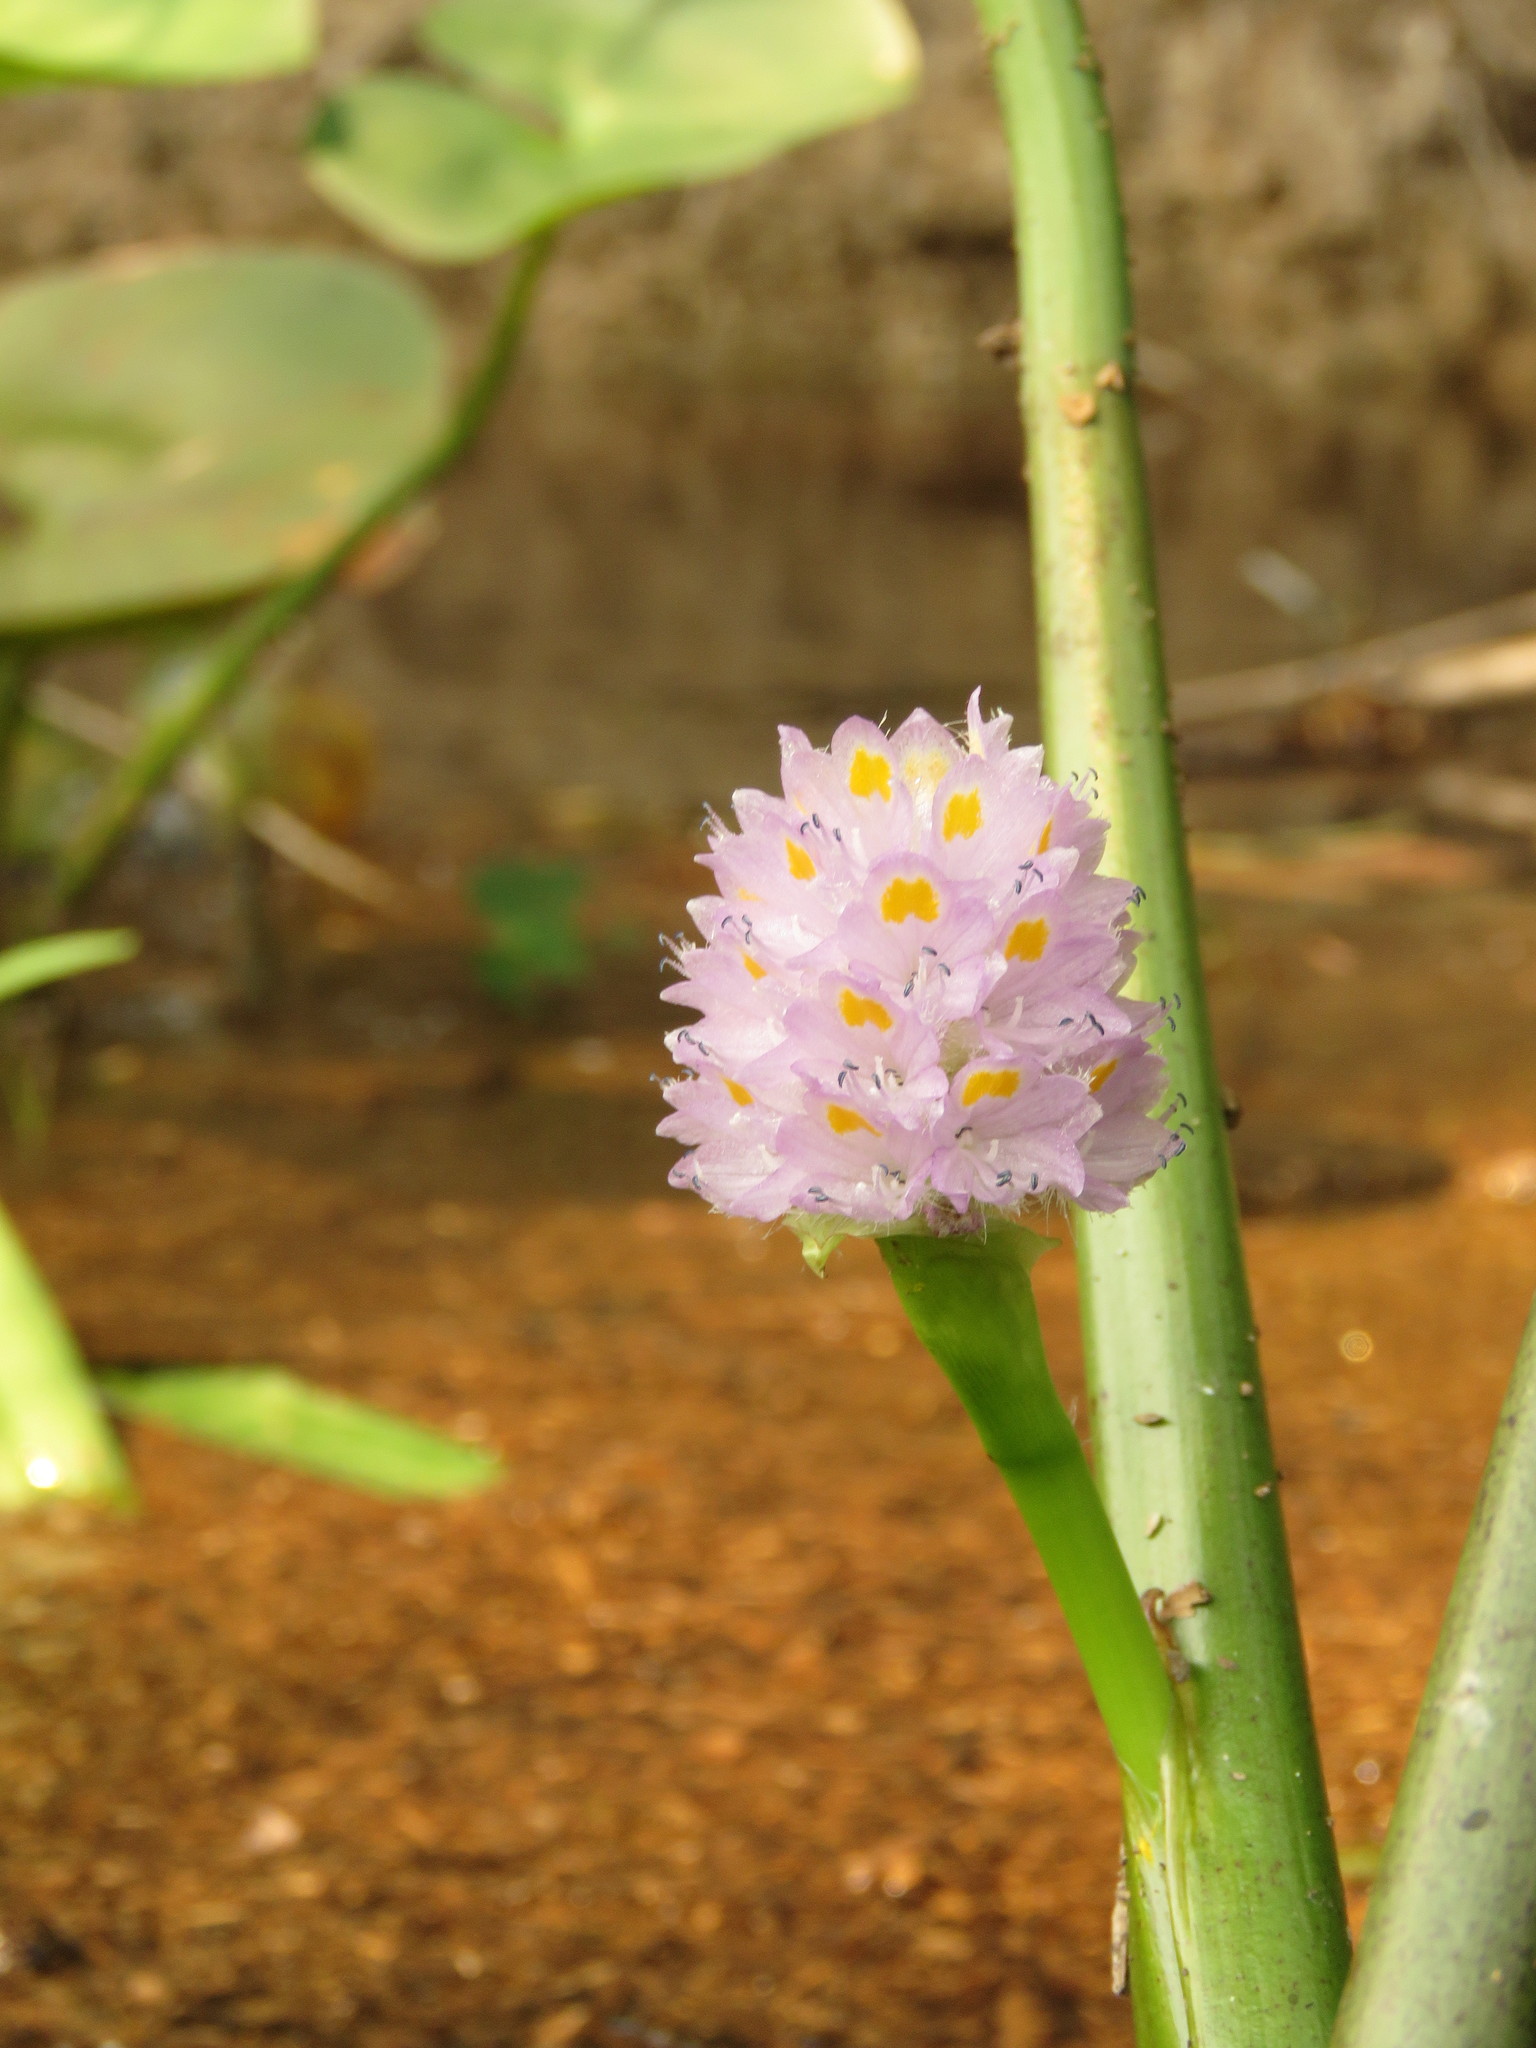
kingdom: Plantae
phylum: Tracheophyta
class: Liliopsida
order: Commelinales
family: Pontederiaceae
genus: Pontederia
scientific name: Pontederia rotundifolia
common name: Tropical pickerel-weed
